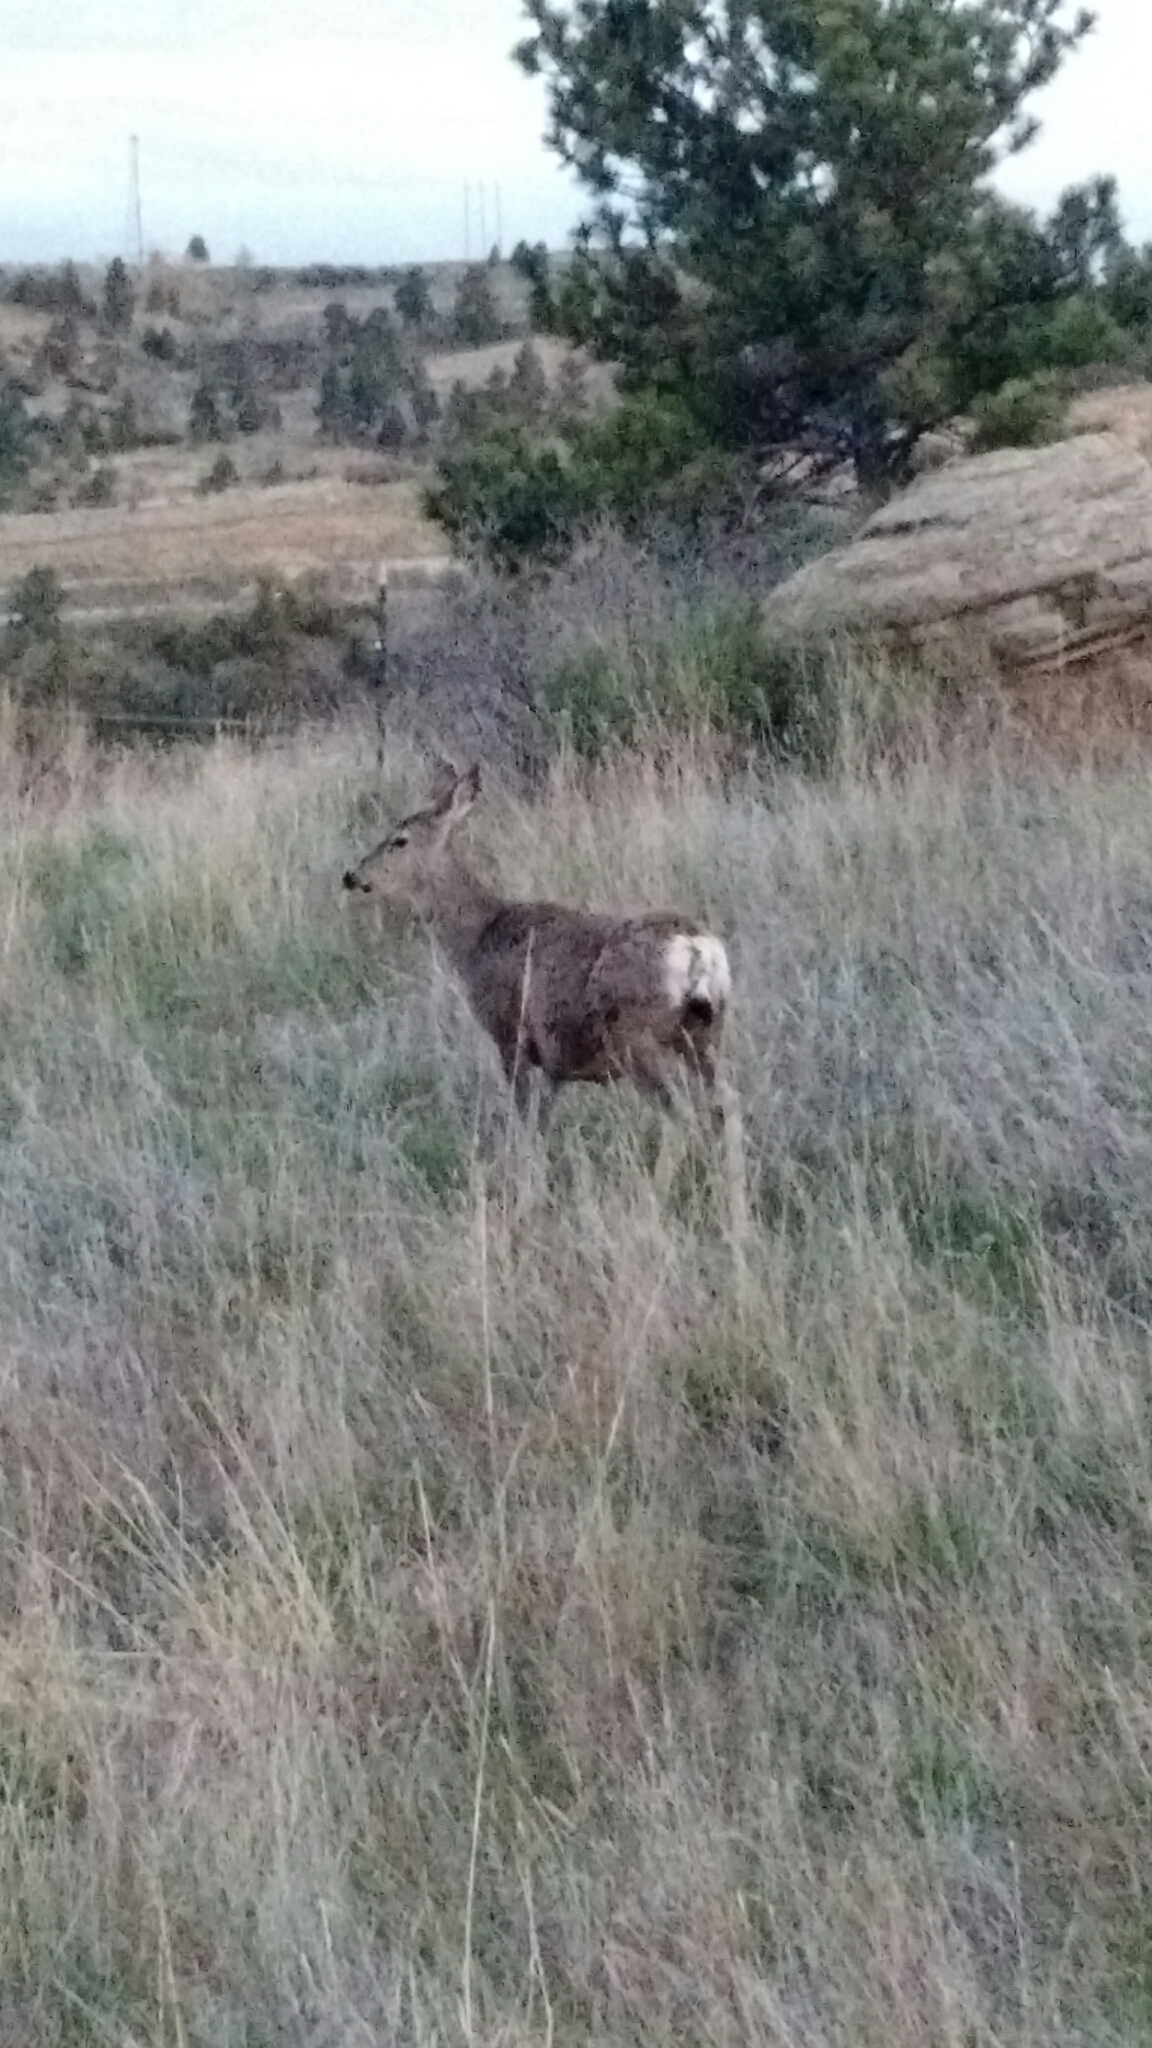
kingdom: Animalia
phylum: Chordata
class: Mammalia
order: Artiodactyla
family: Cervidae
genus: Odocoileus
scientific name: Odocoileus hemionus
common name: Mule deer
